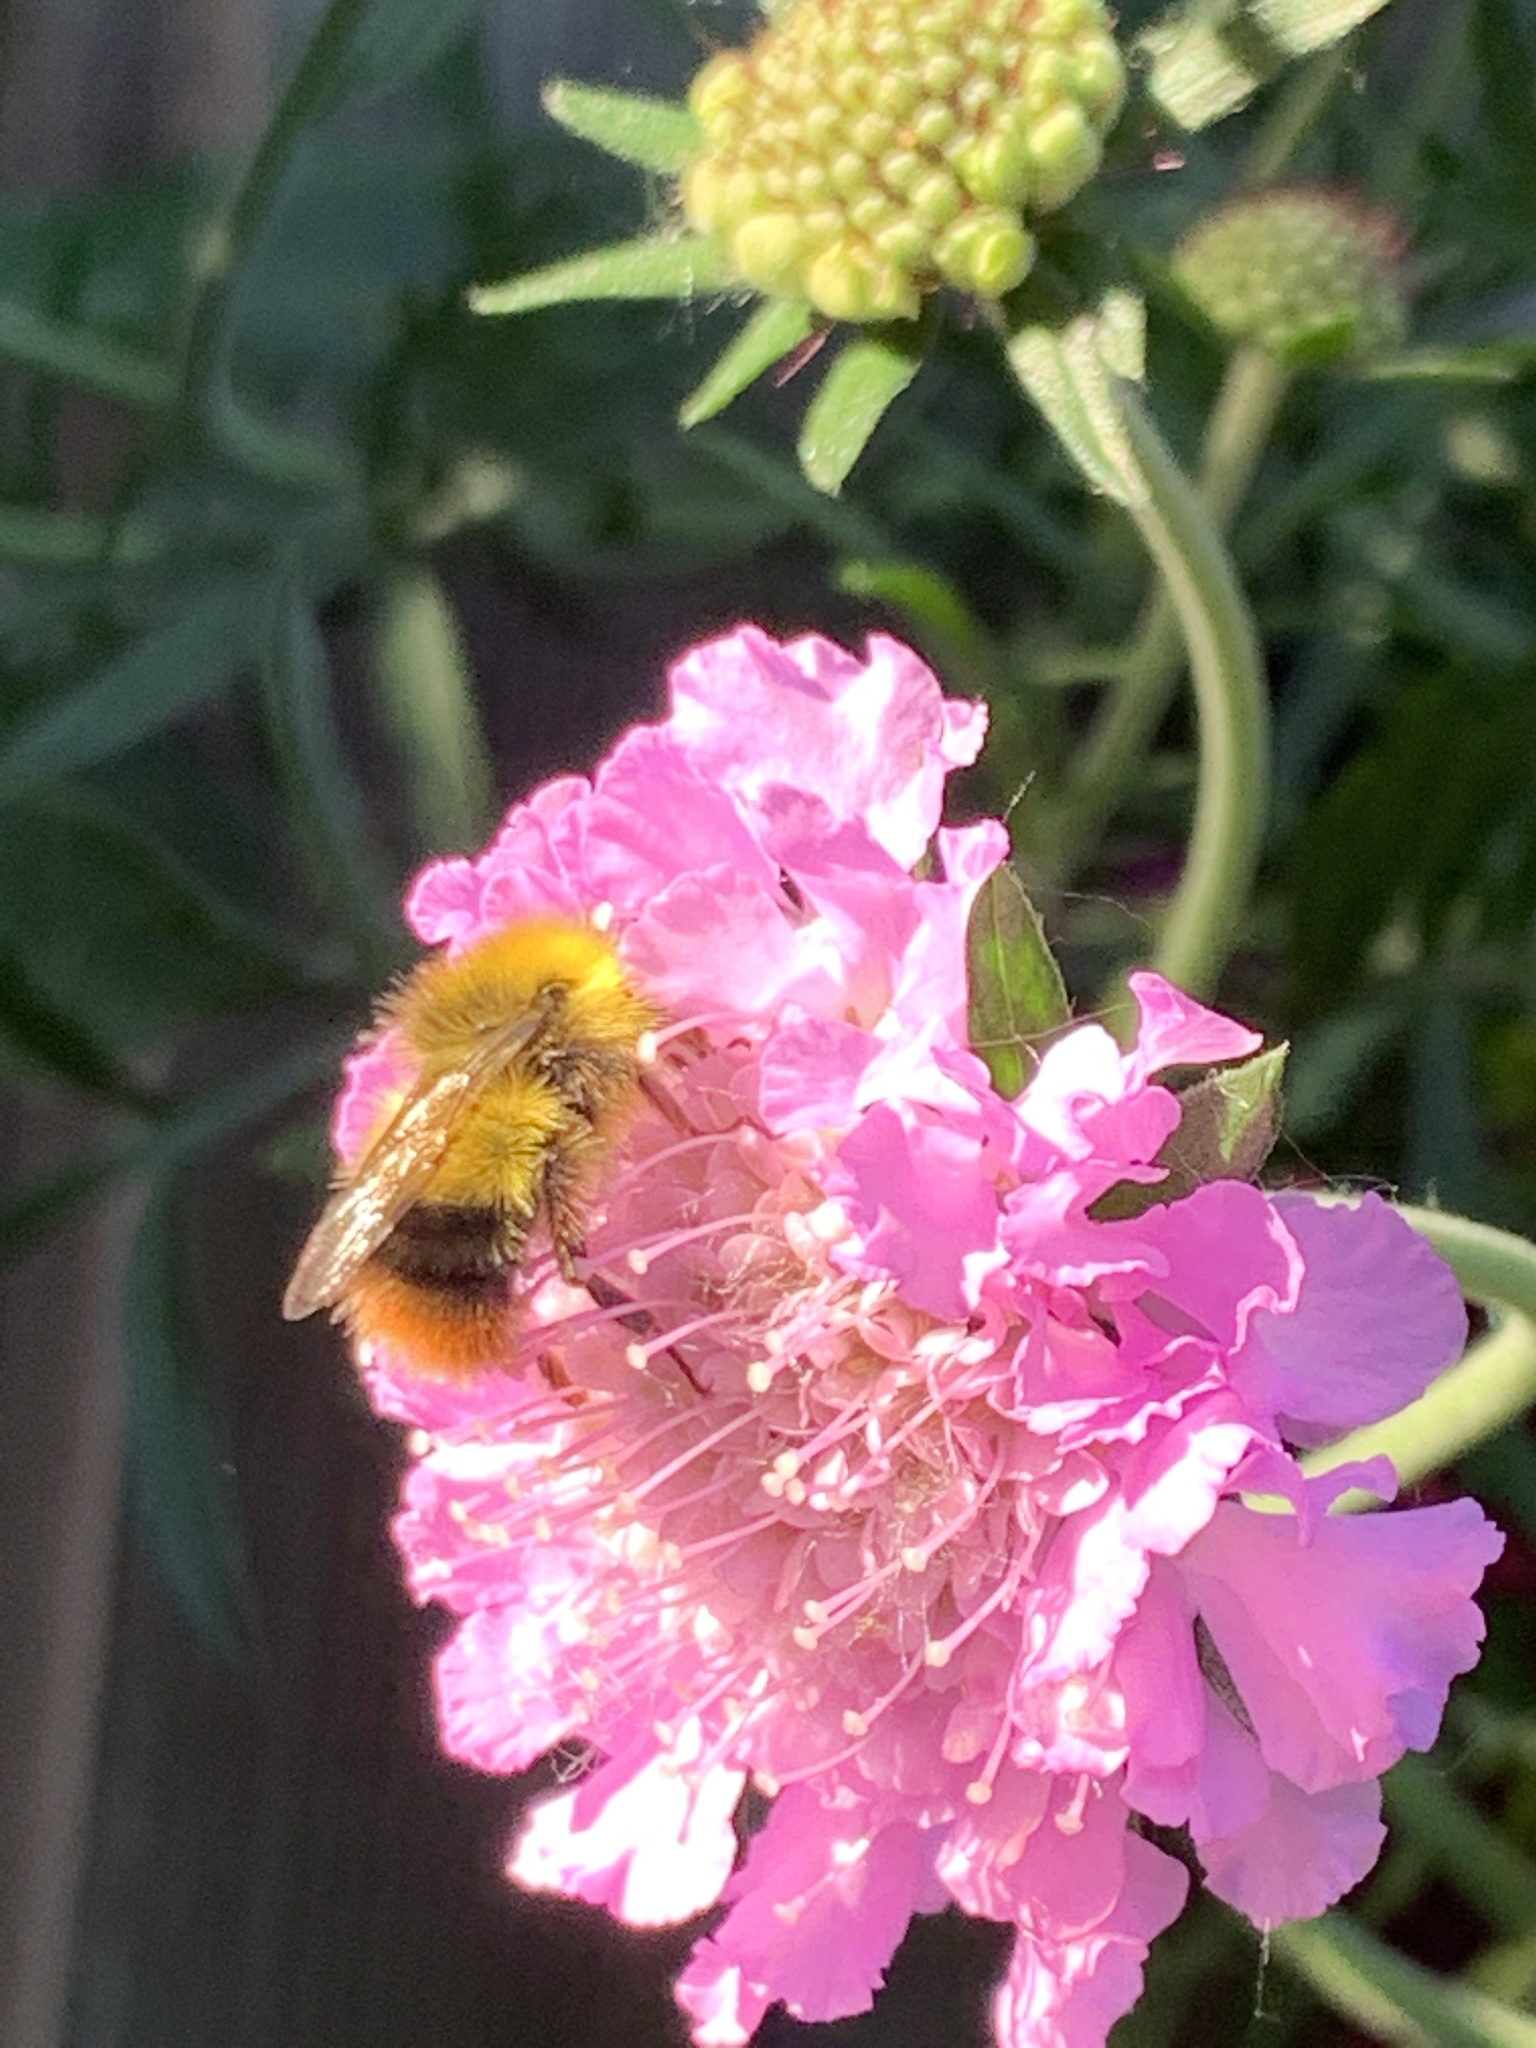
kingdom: Animalia
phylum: Arthropoda
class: Insecta
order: Hymenoptera
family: Apidae
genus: Bombus
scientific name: Bombus pratorum
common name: Early humble-bee
